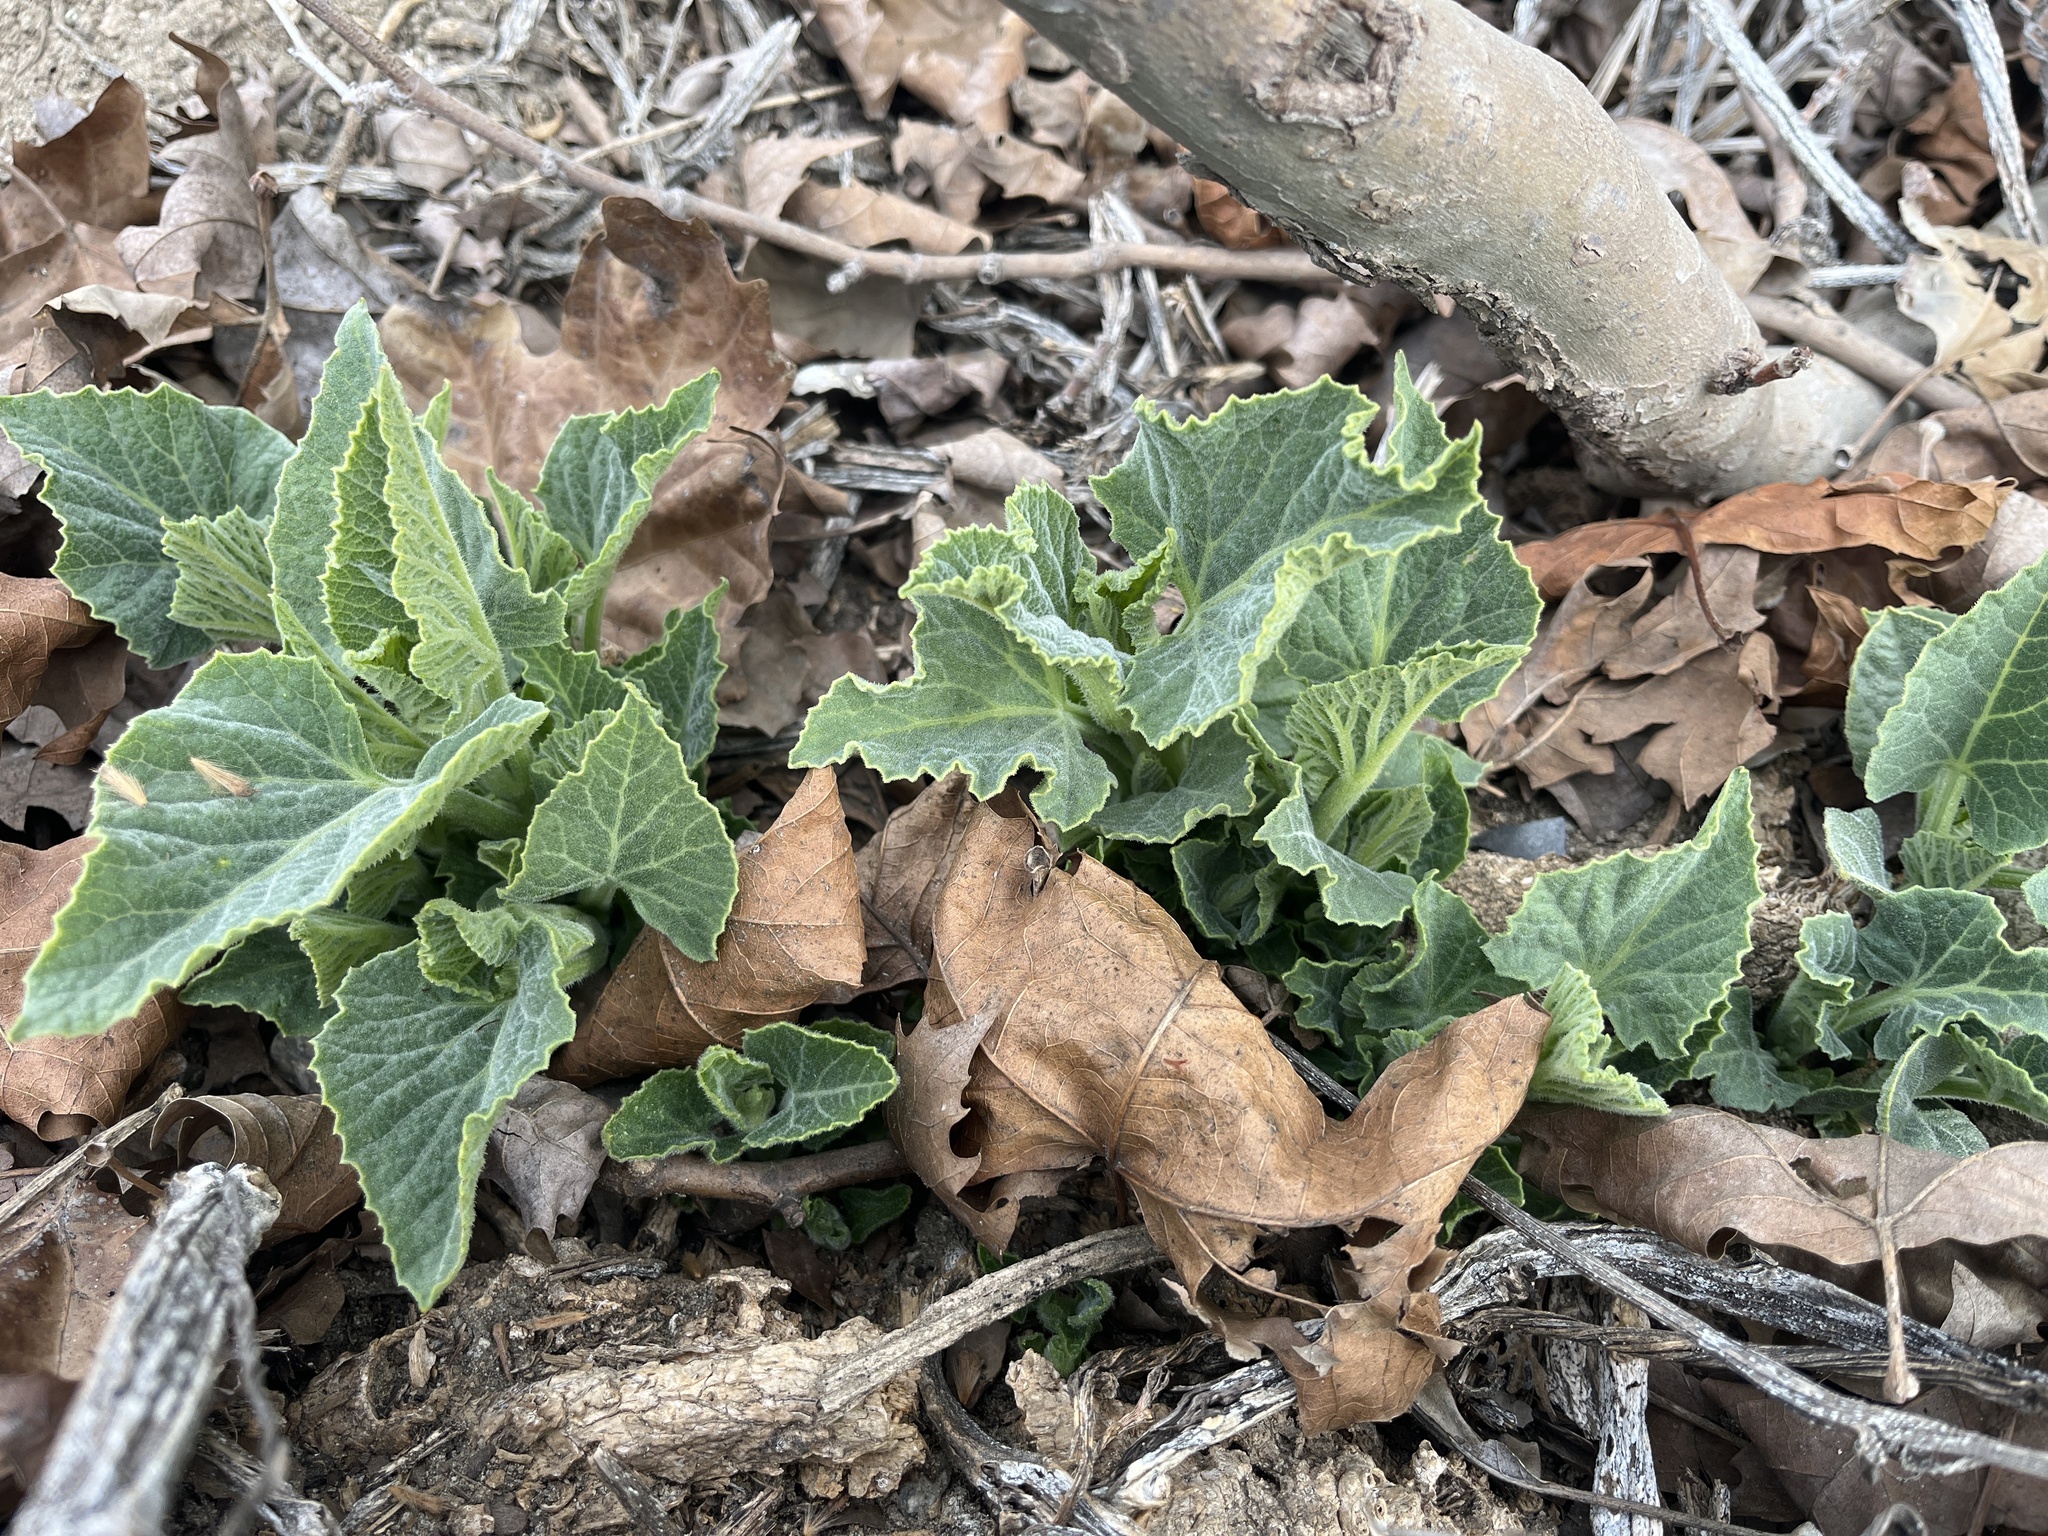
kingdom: Plantae
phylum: Tracheophyta
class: Magnoliopsida
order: Cucurbitales
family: Cucurbitaceae
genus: Cucurbita
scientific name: Cucurbita foetidissima
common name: Buffalo gourd
